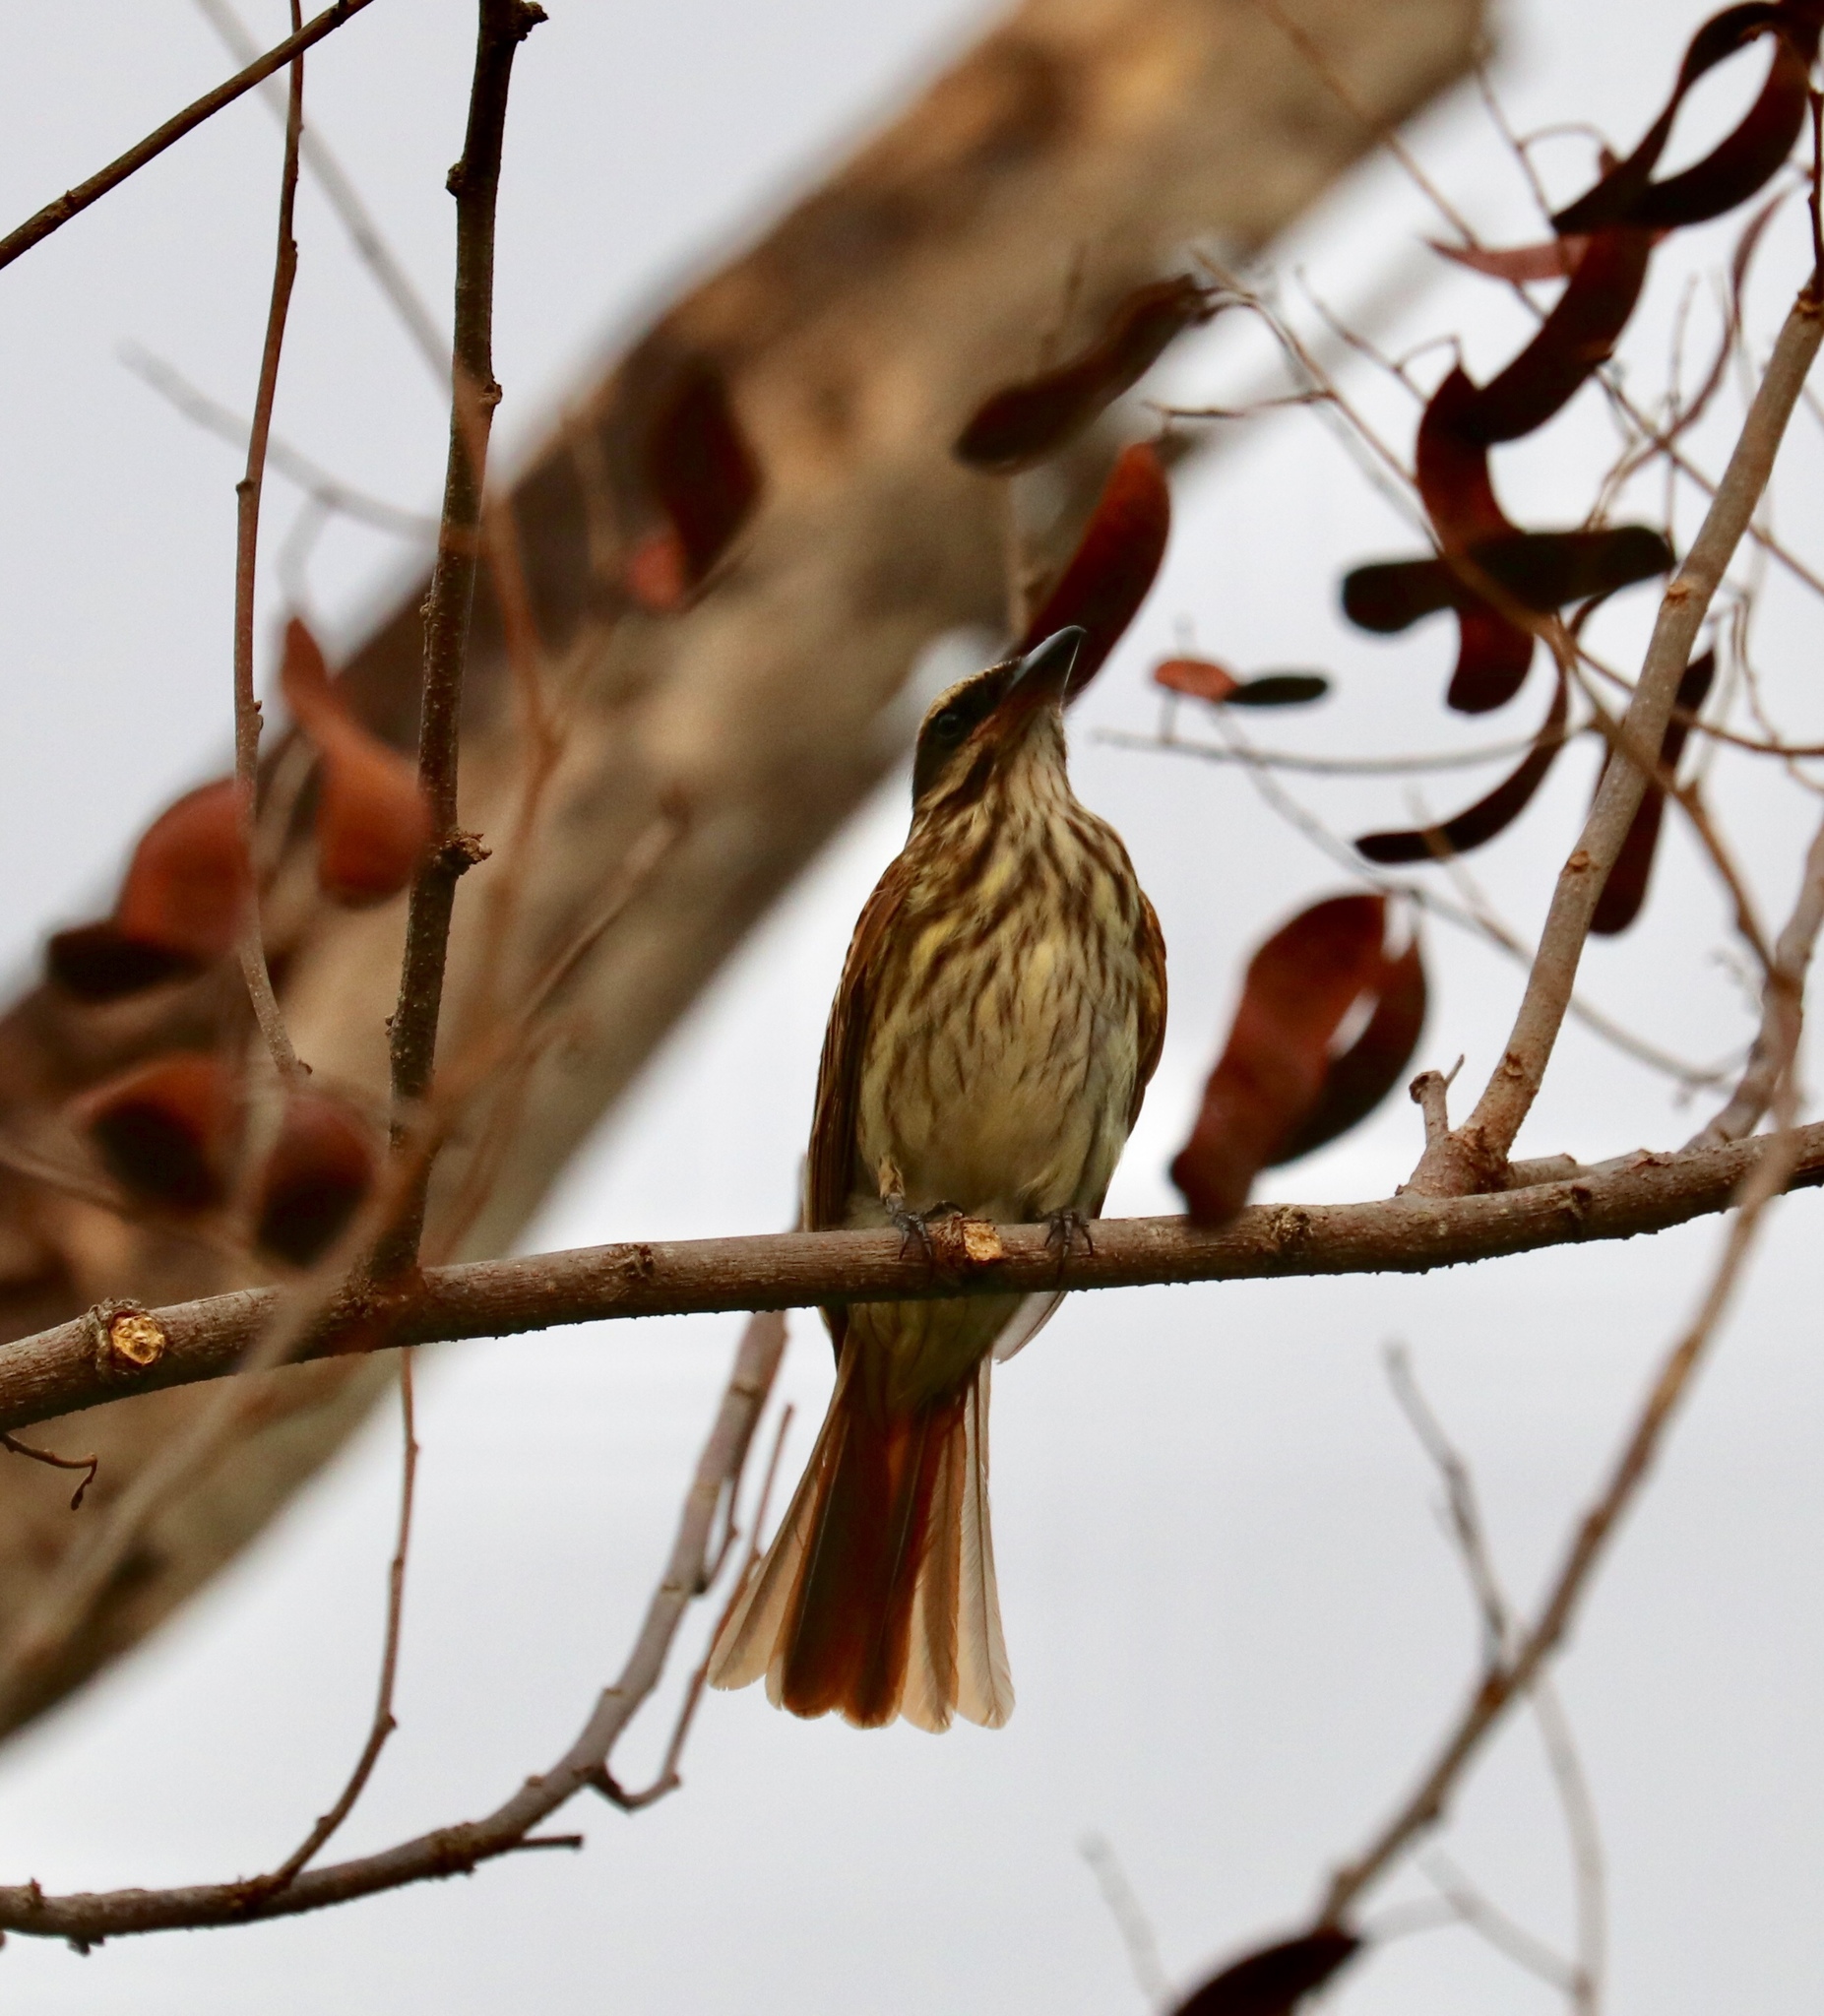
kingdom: Animalia
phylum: Chordata
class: Aves
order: Passeriformes
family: Tyrannidae
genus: Myiodynastes
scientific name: Myiodynastes maculatus
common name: Streaked flycatcher
